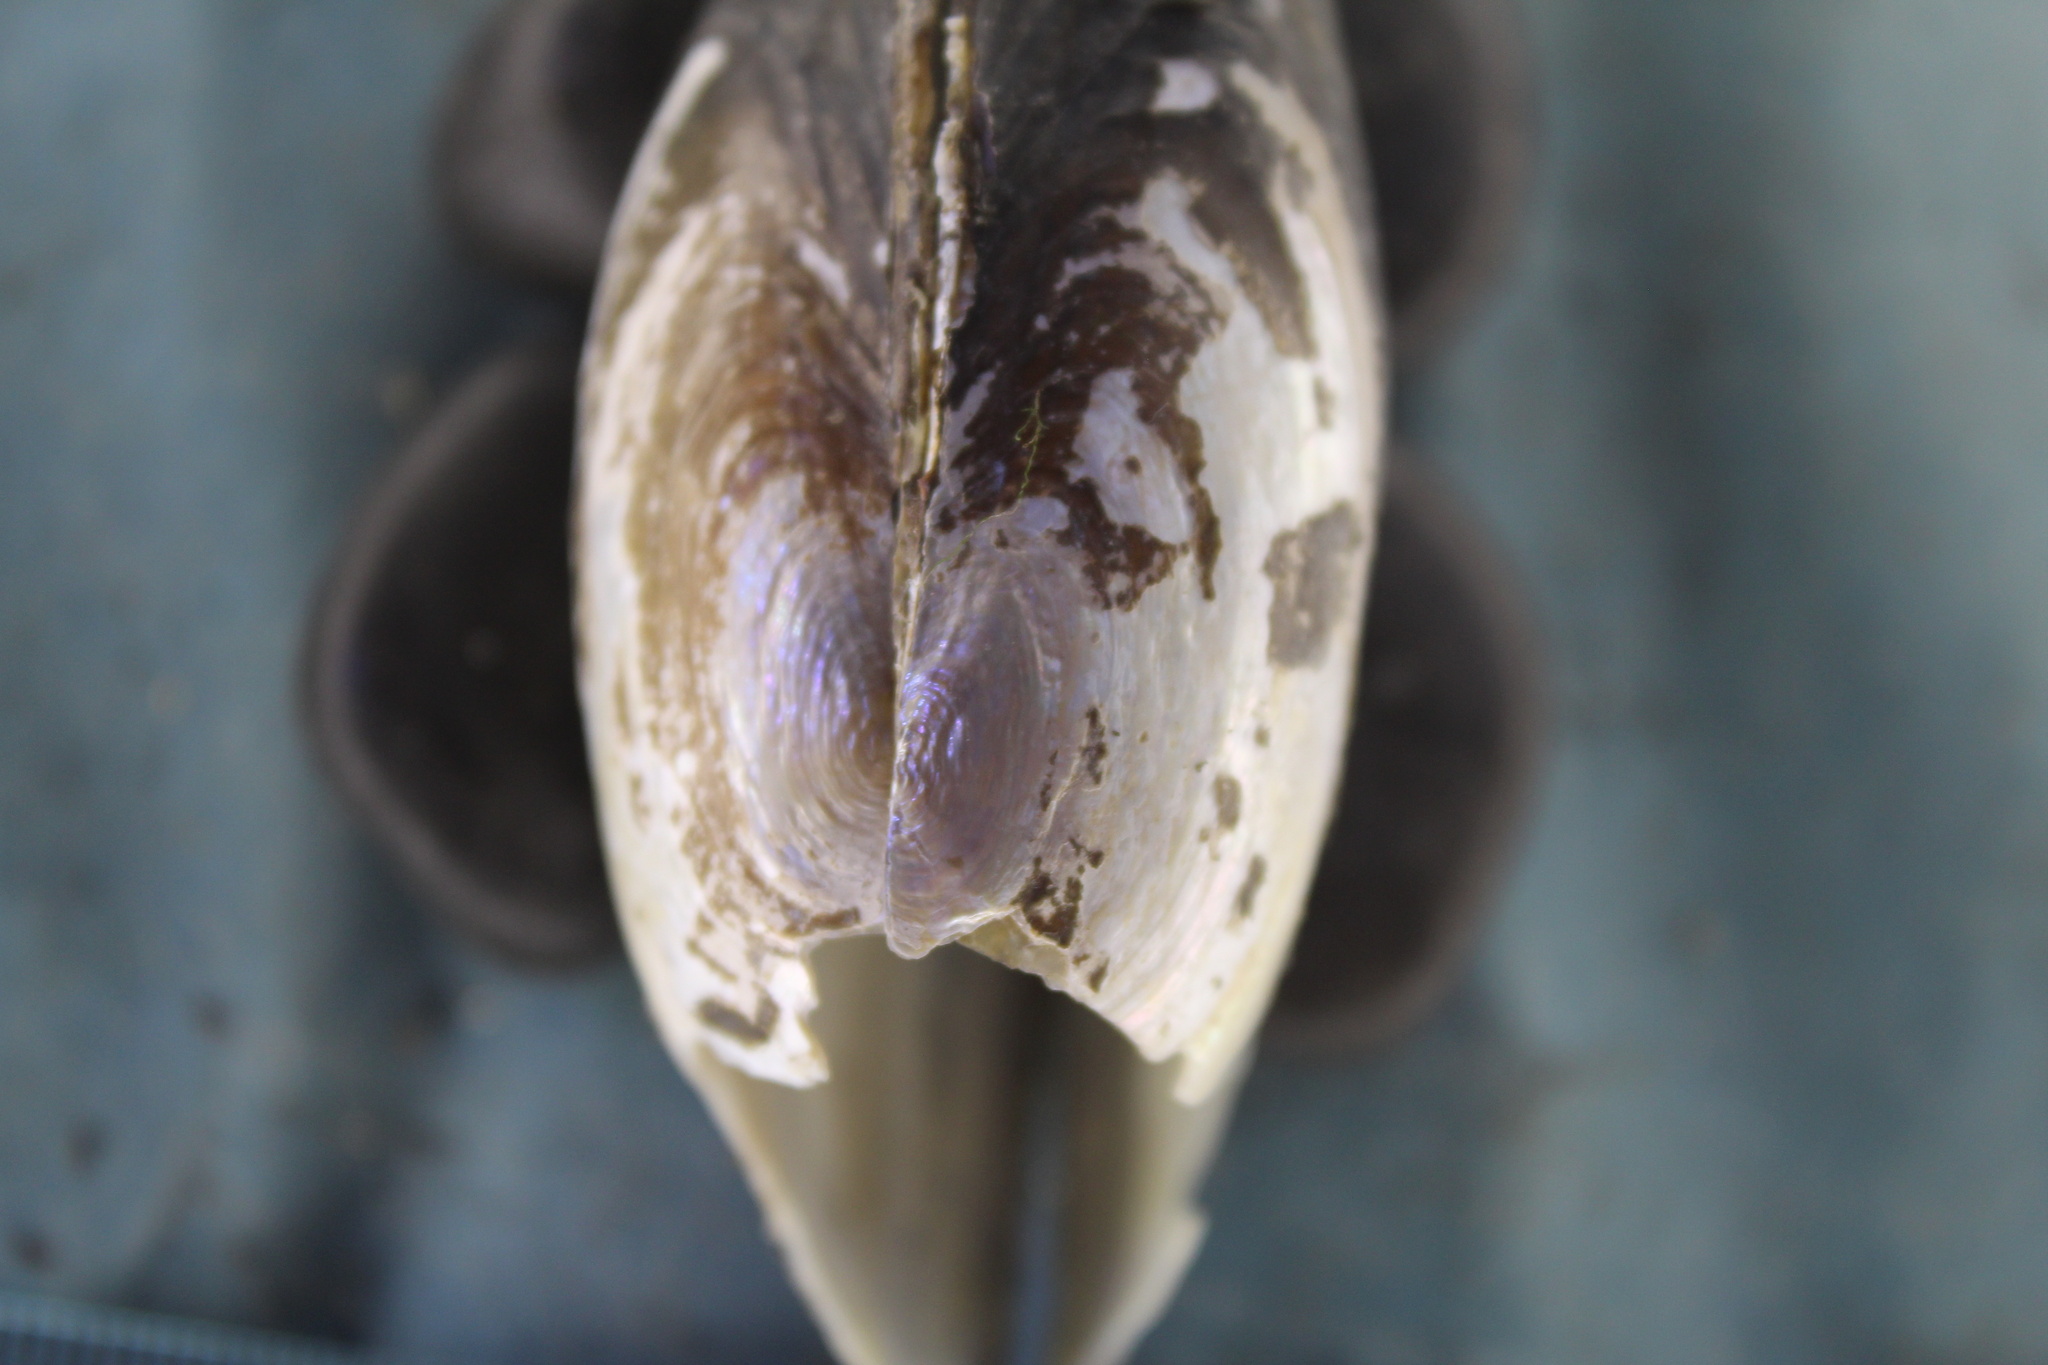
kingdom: Animalia
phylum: Mollusca
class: Bivalvia
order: Unionida
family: Unionidae
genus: Utterbackia
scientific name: Utterbackia imbecillis
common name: Paper pondshell
